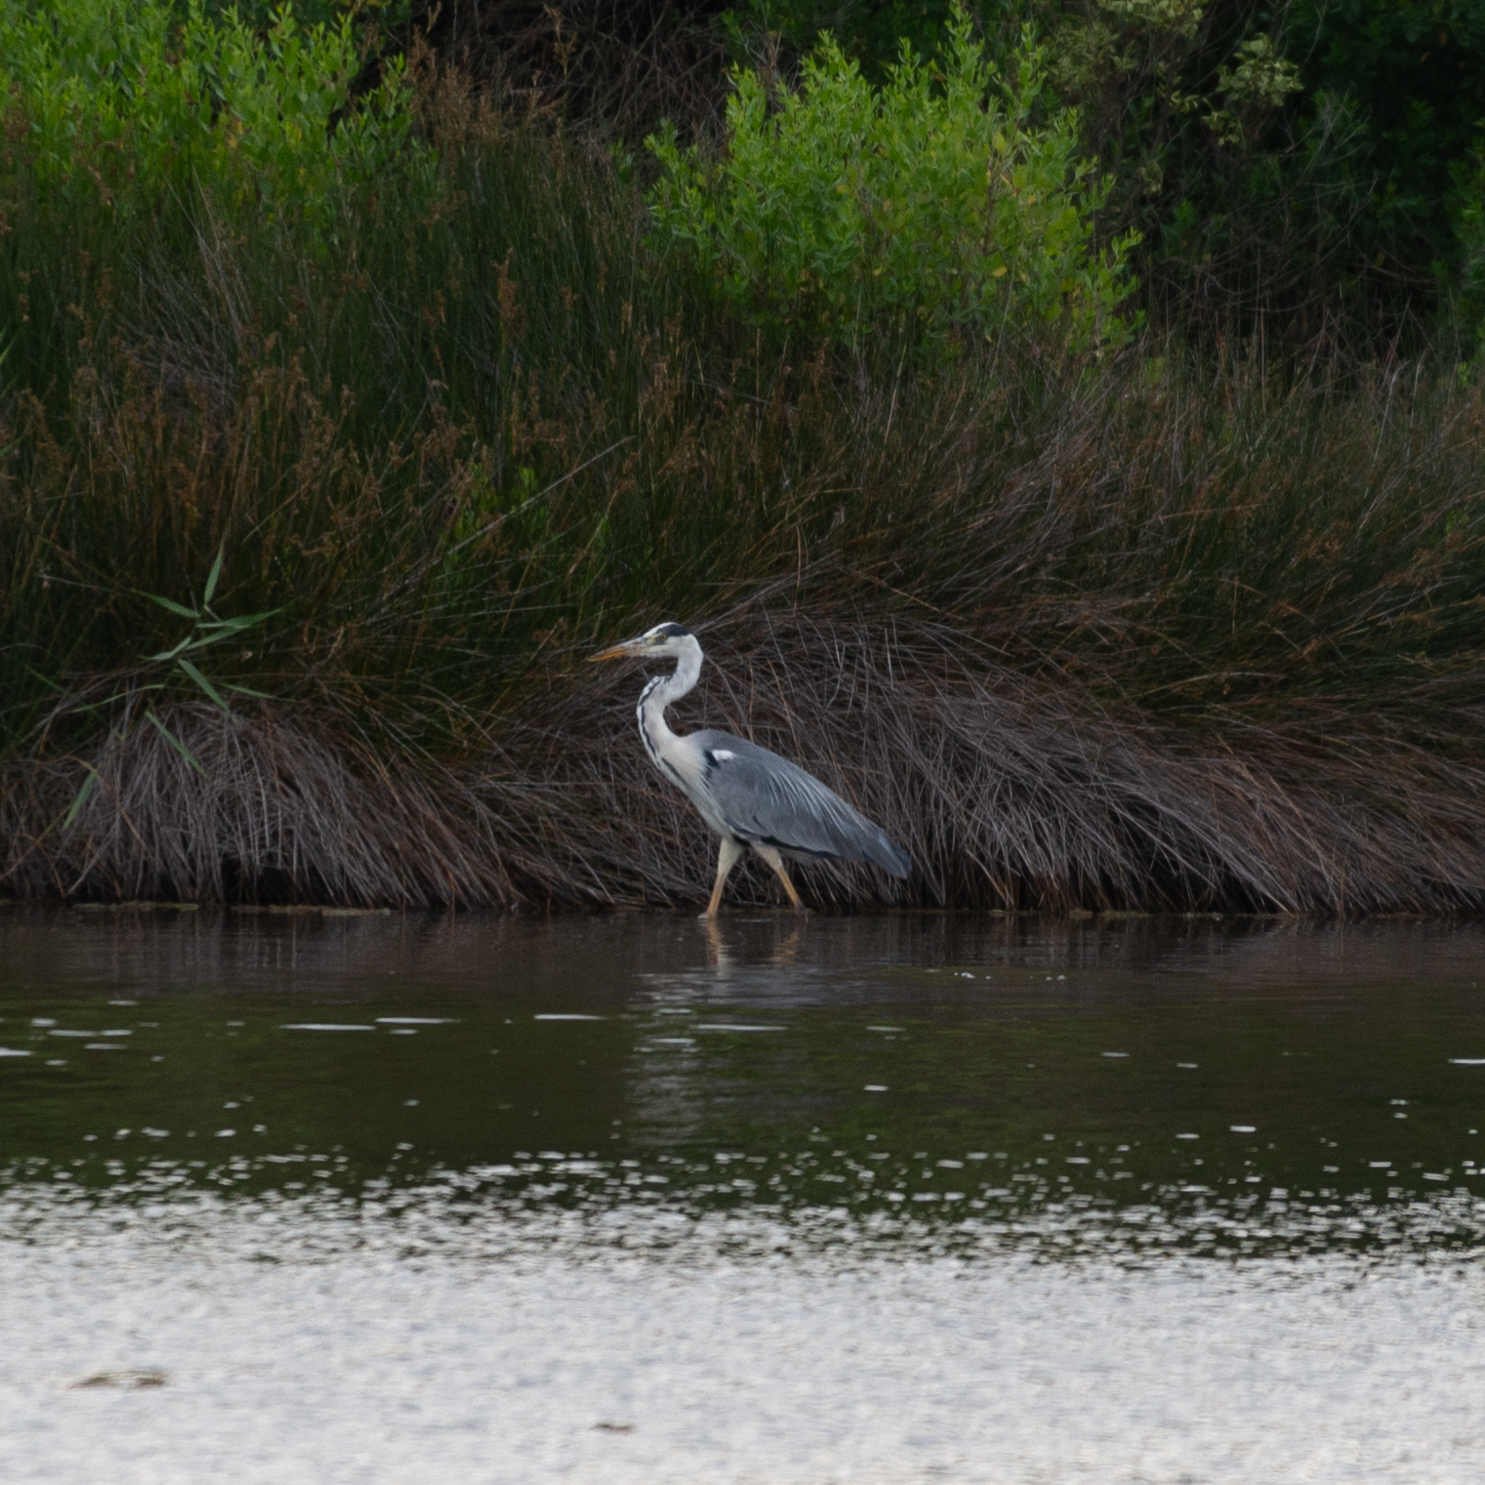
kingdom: Animalia
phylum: Chordata
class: Aves
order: Pelecaniformes
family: Ardeidae
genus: Ardea
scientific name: Ardea cinerea
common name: Grey heron
